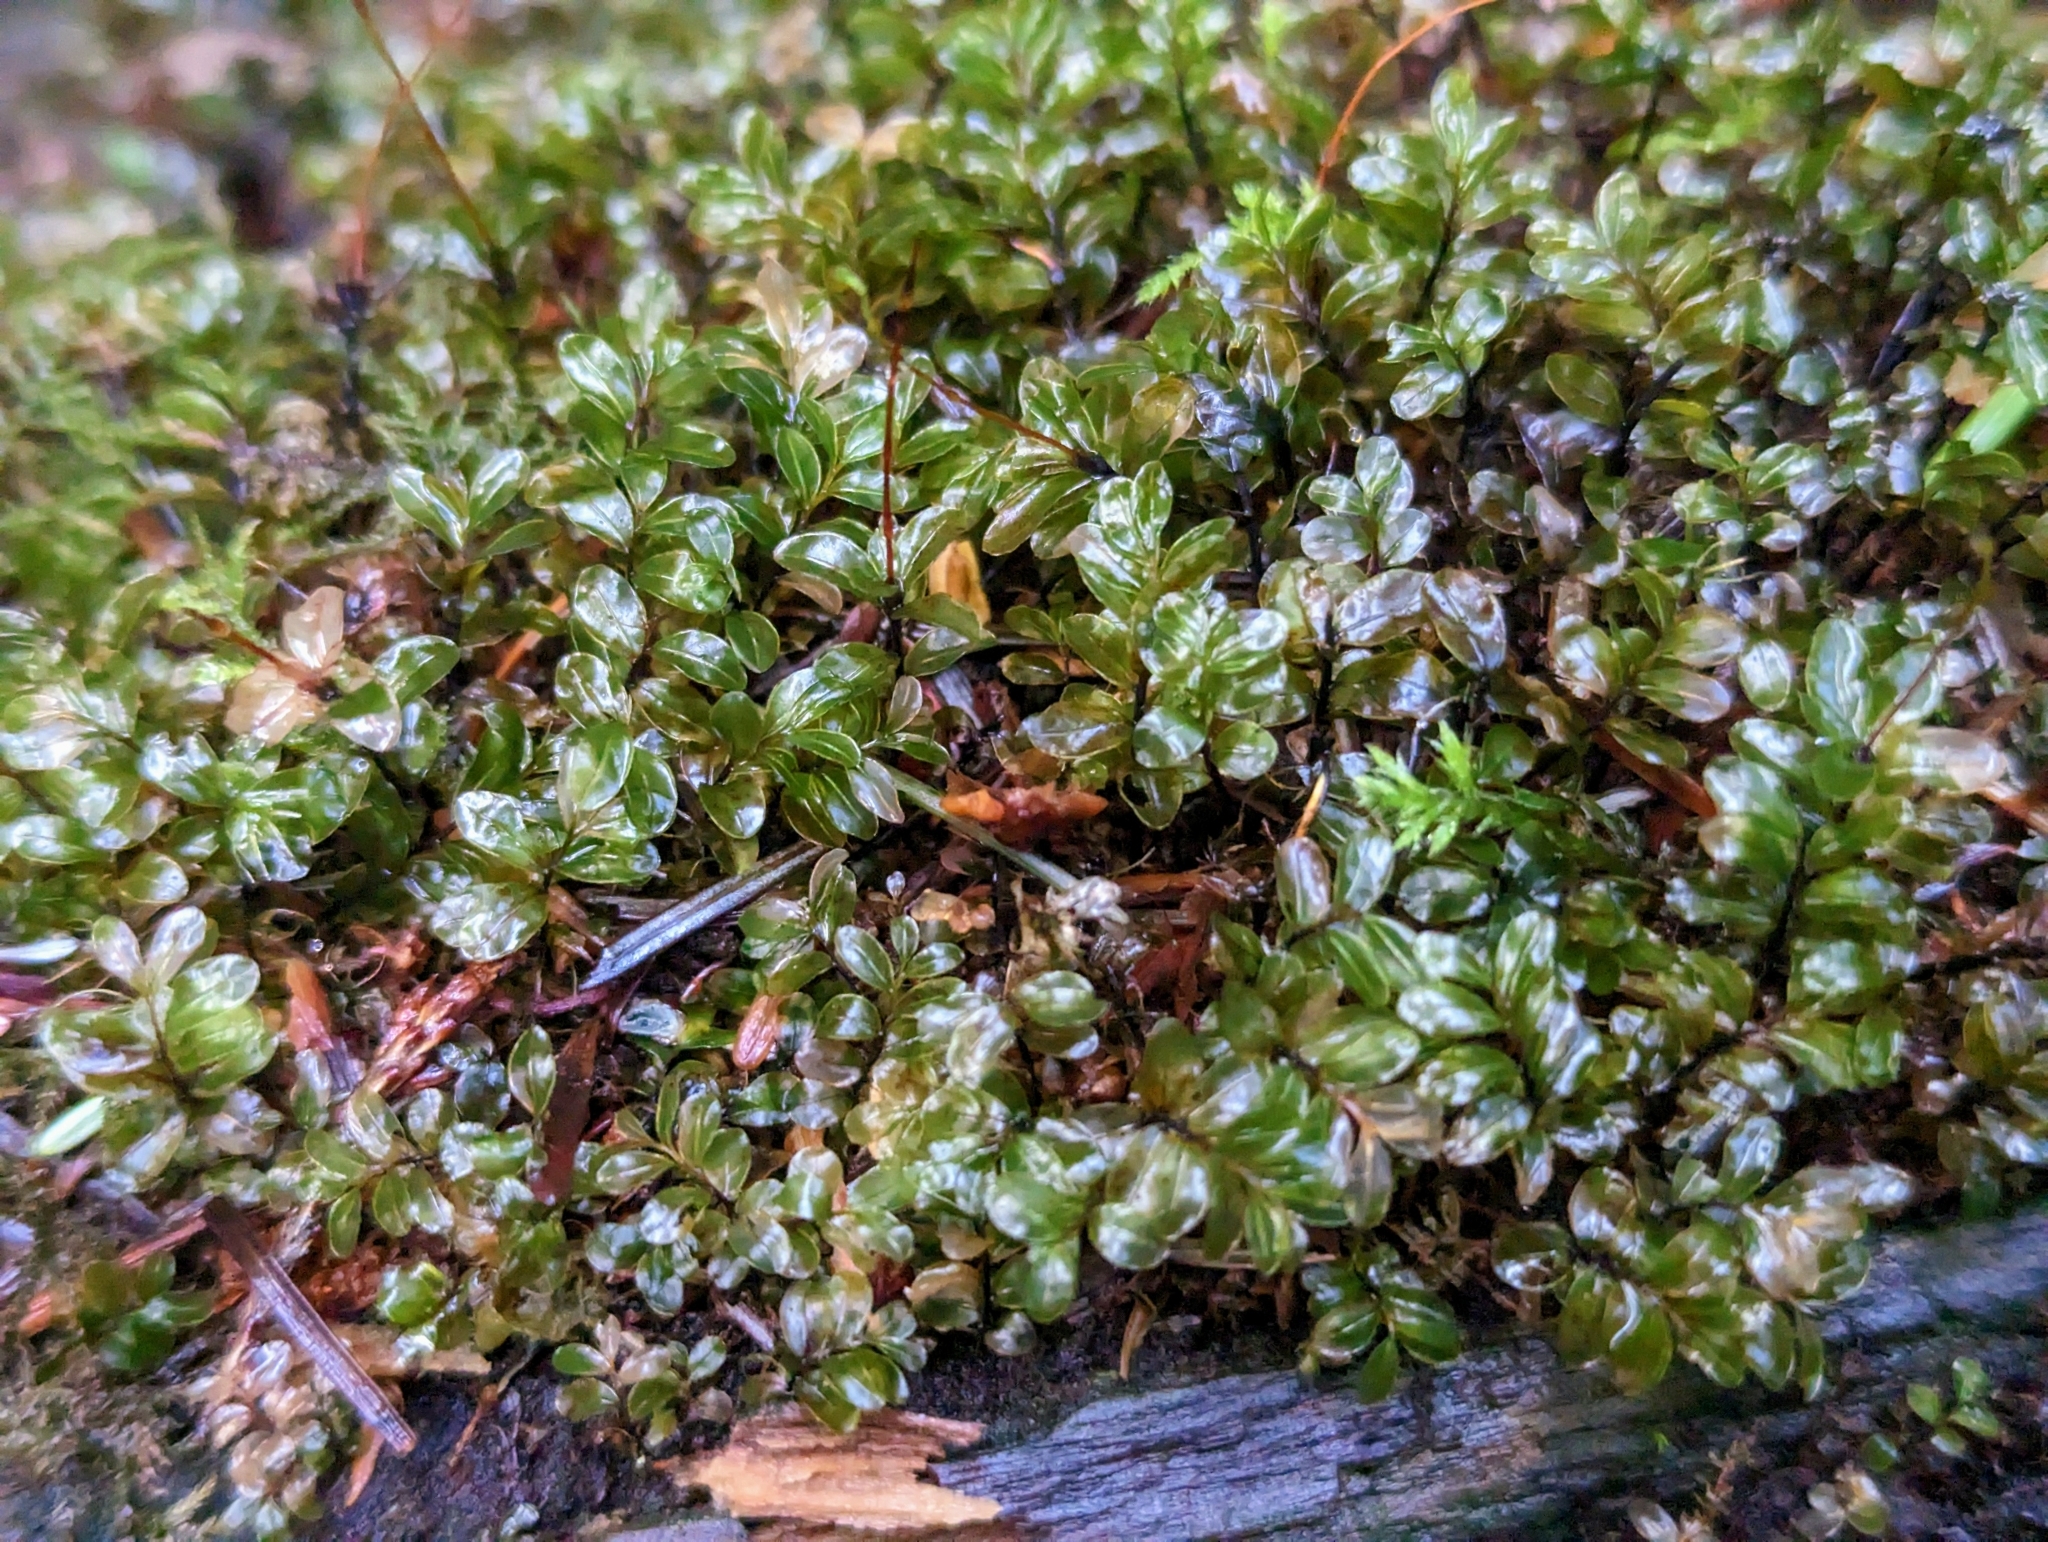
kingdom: Plantae
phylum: Bryophyta
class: Bryopsida
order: Bryales
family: Mniaceae
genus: Rhizomnium
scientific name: Rhizomnium glabrescens
